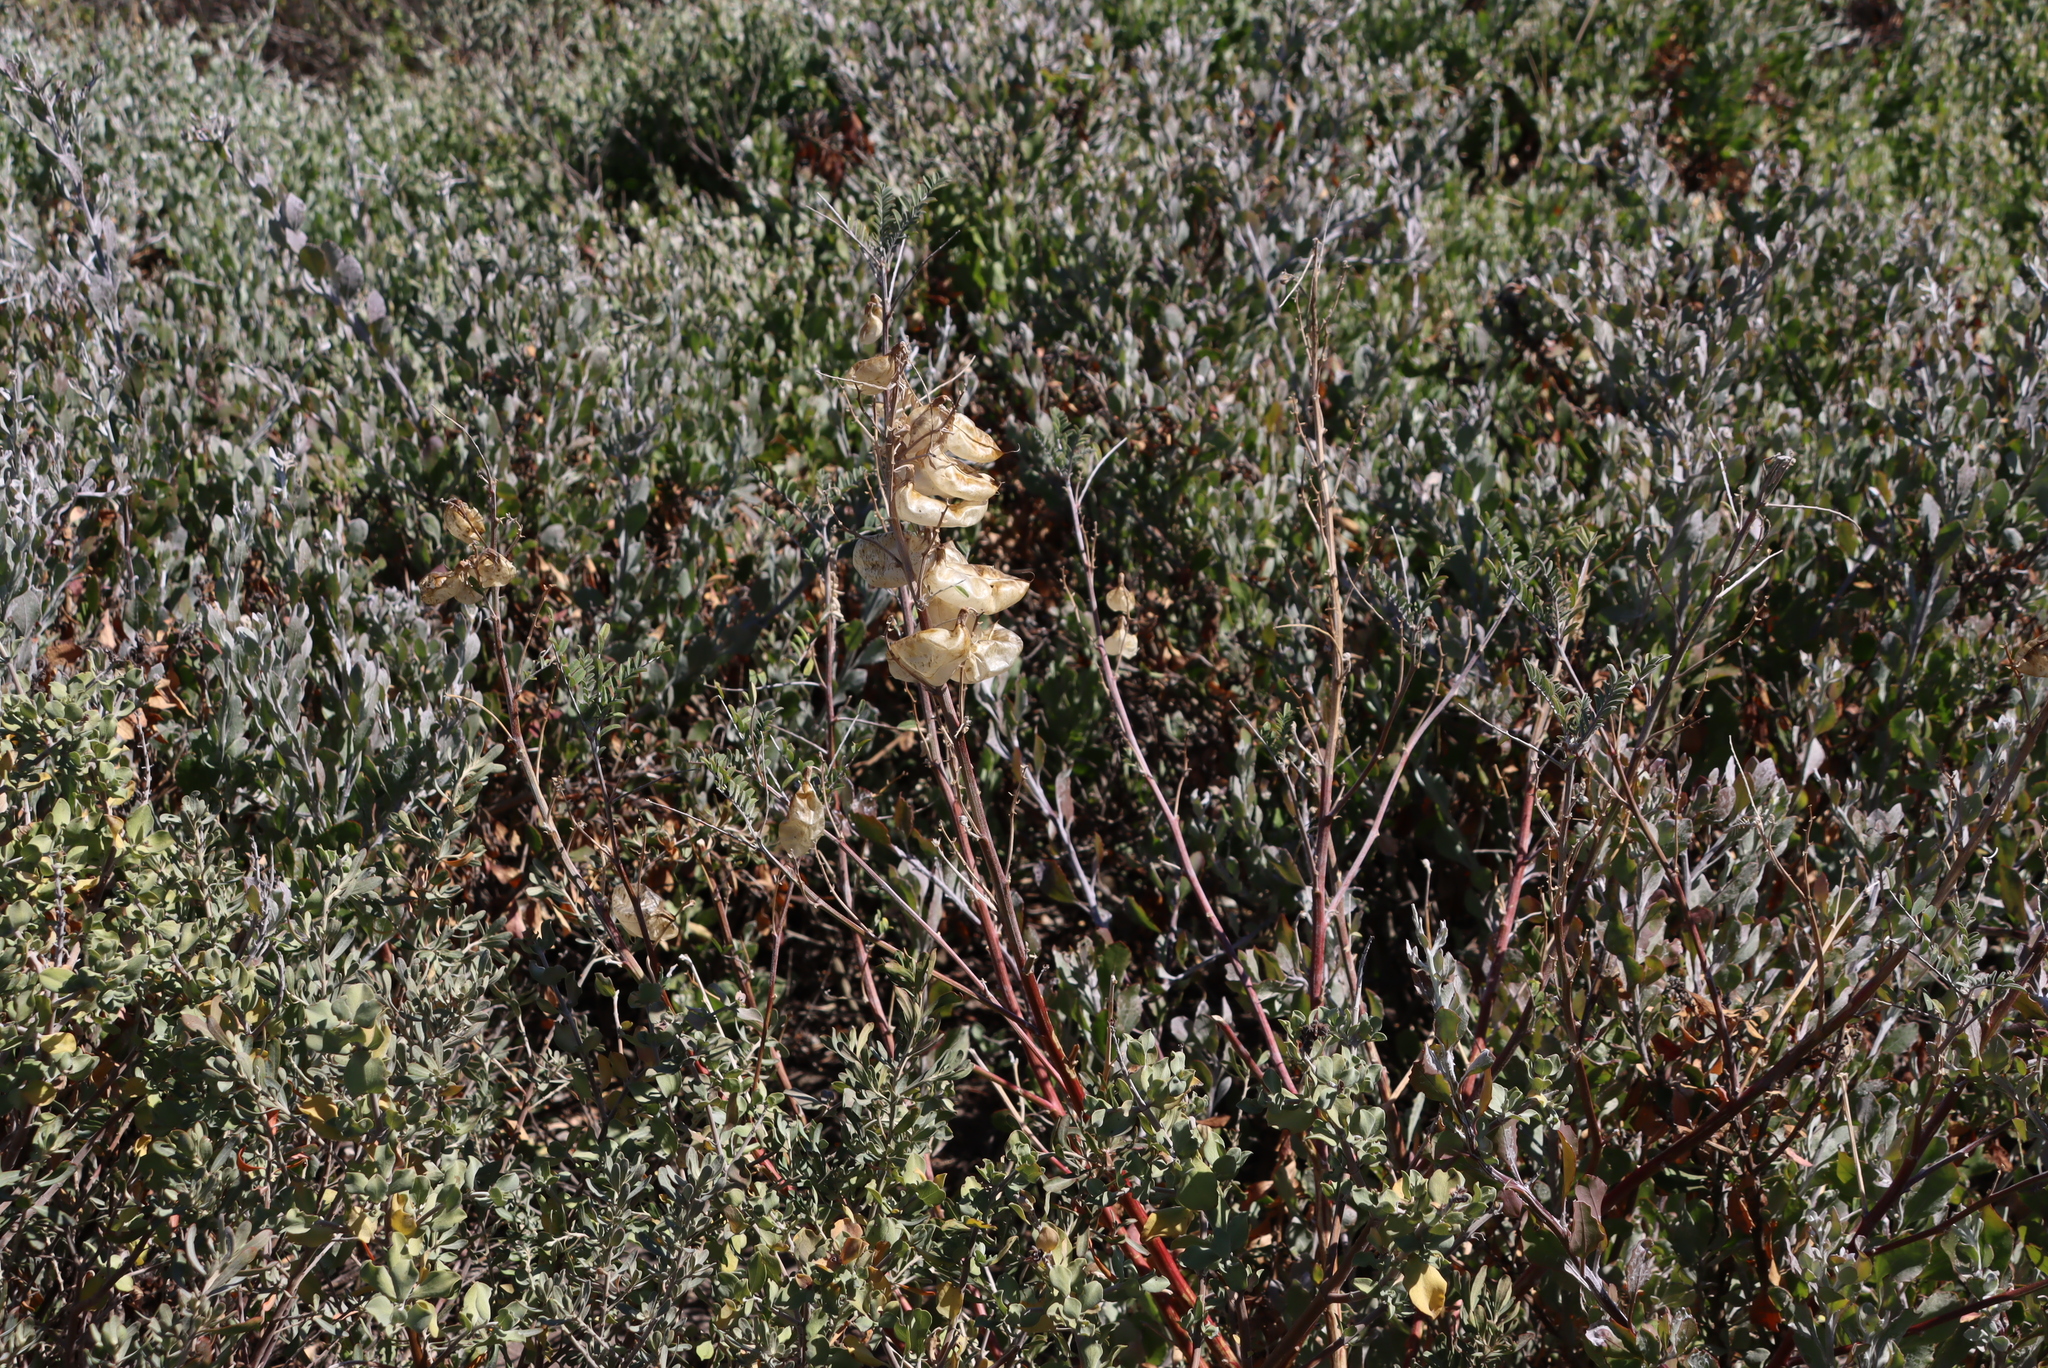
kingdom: Plantae
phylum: Tracheophyta
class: Magnoliopsida
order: Fabales
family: Fabaceae
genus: Lessertia
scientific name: Lessertia frutescens
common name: Balloon-pea
